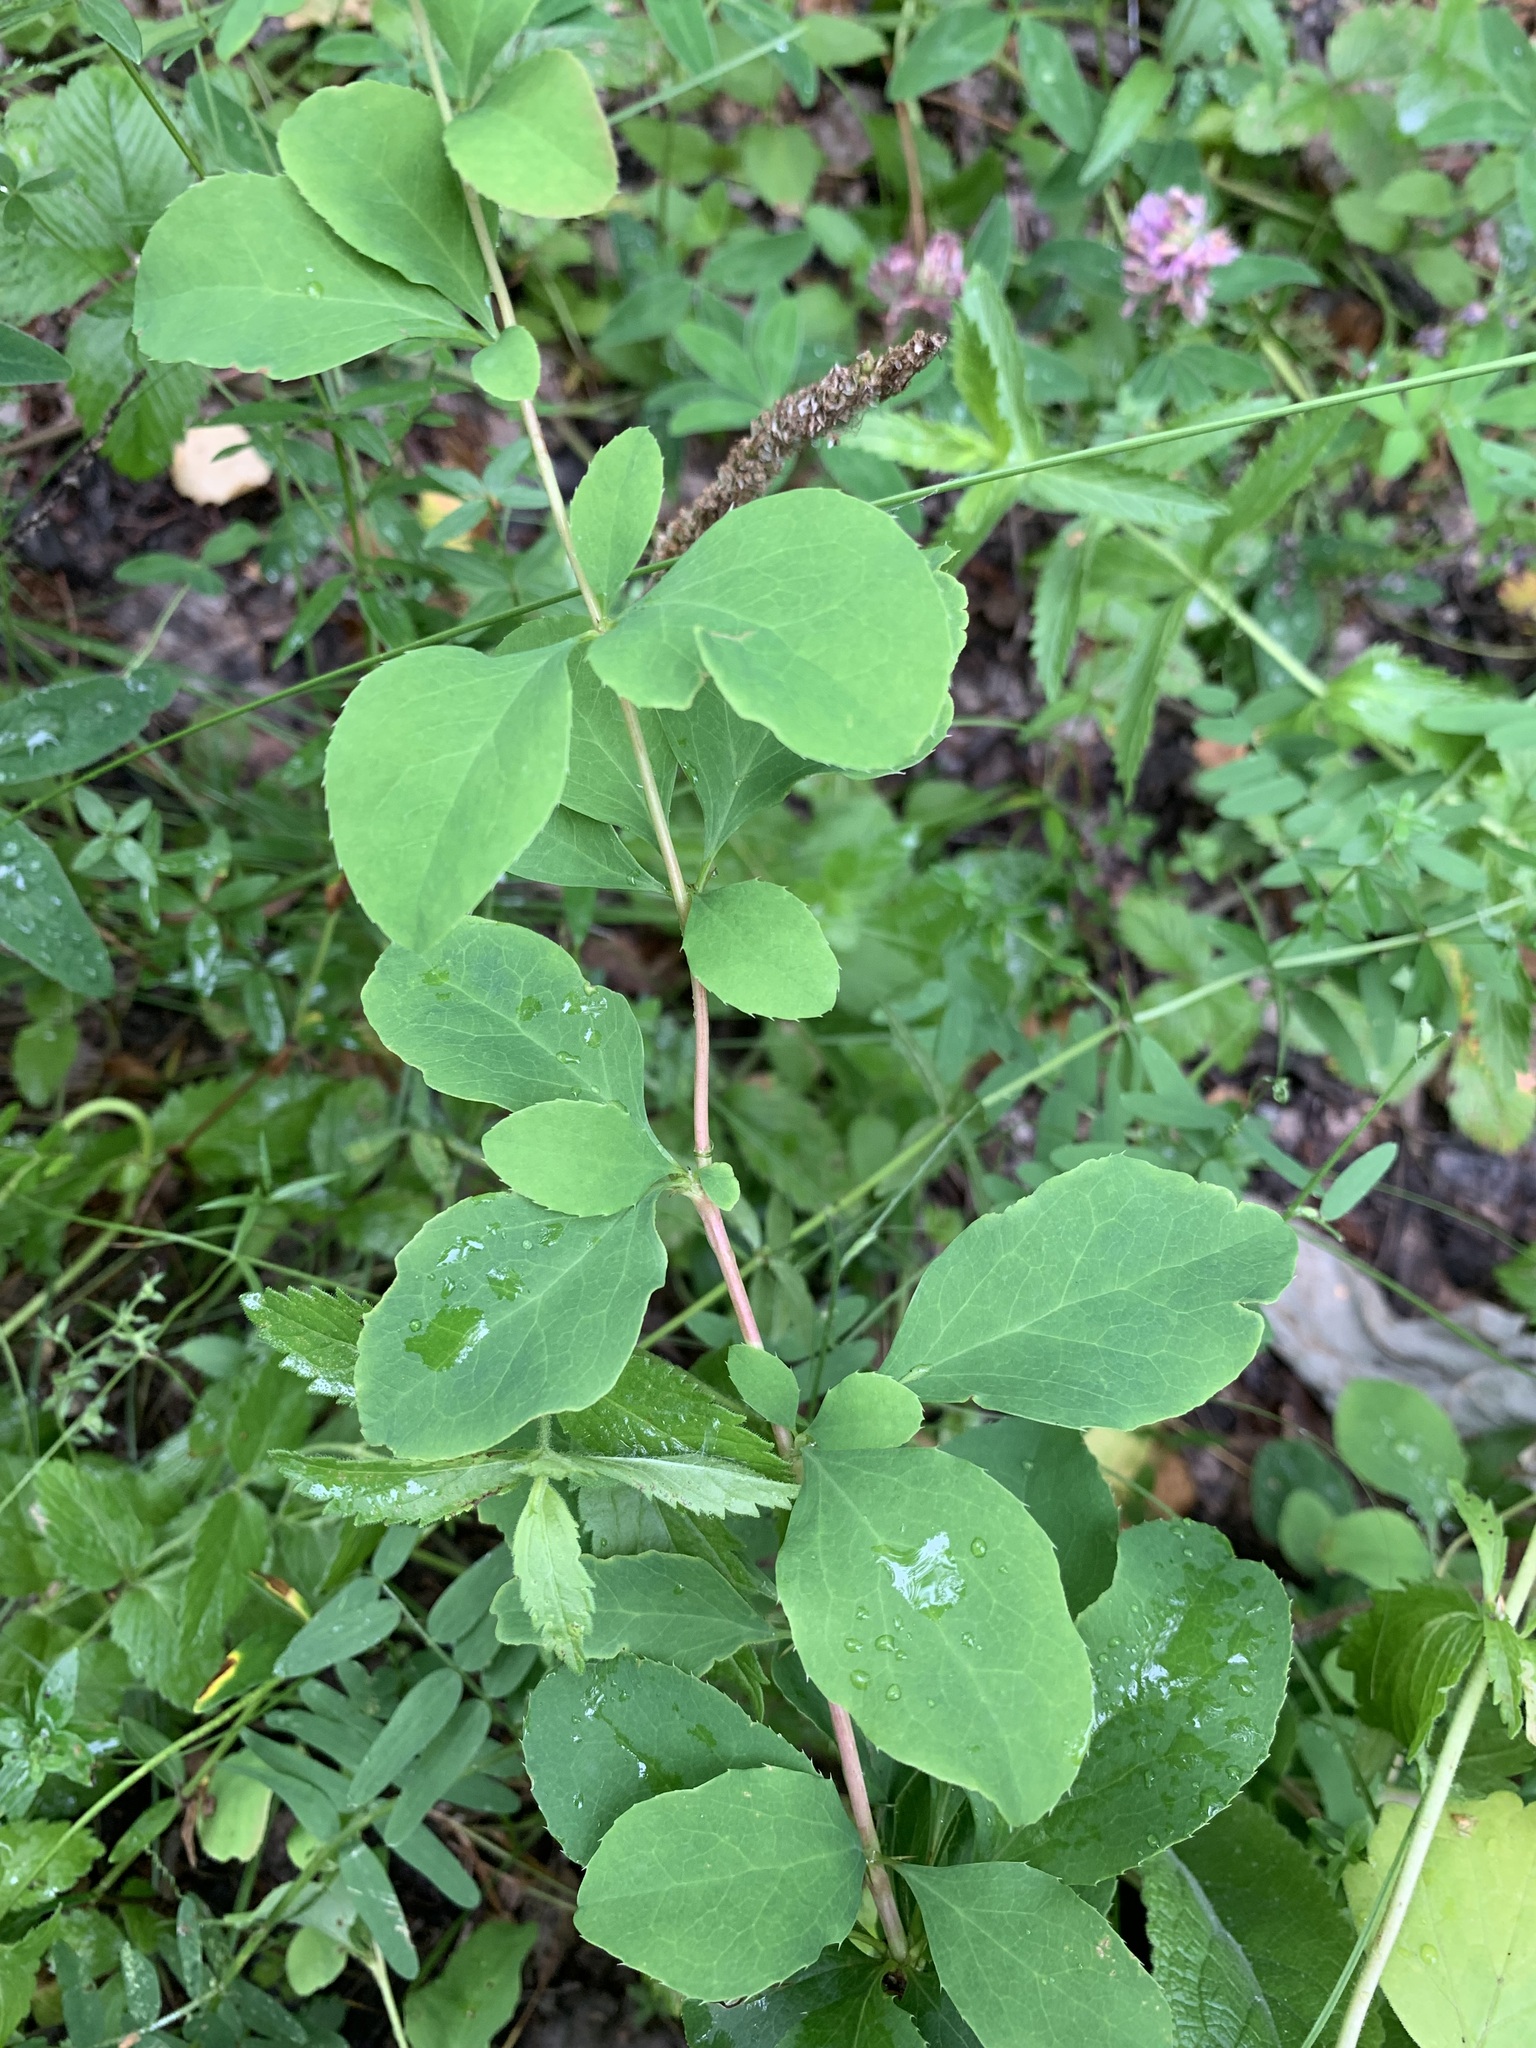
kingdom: Plantae
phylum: Tracheophyta
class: Magnoliopsida
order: Ranunculales
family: Berberidaceae
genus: Berberis
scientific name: Berberis vulgaris
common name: Barberry
